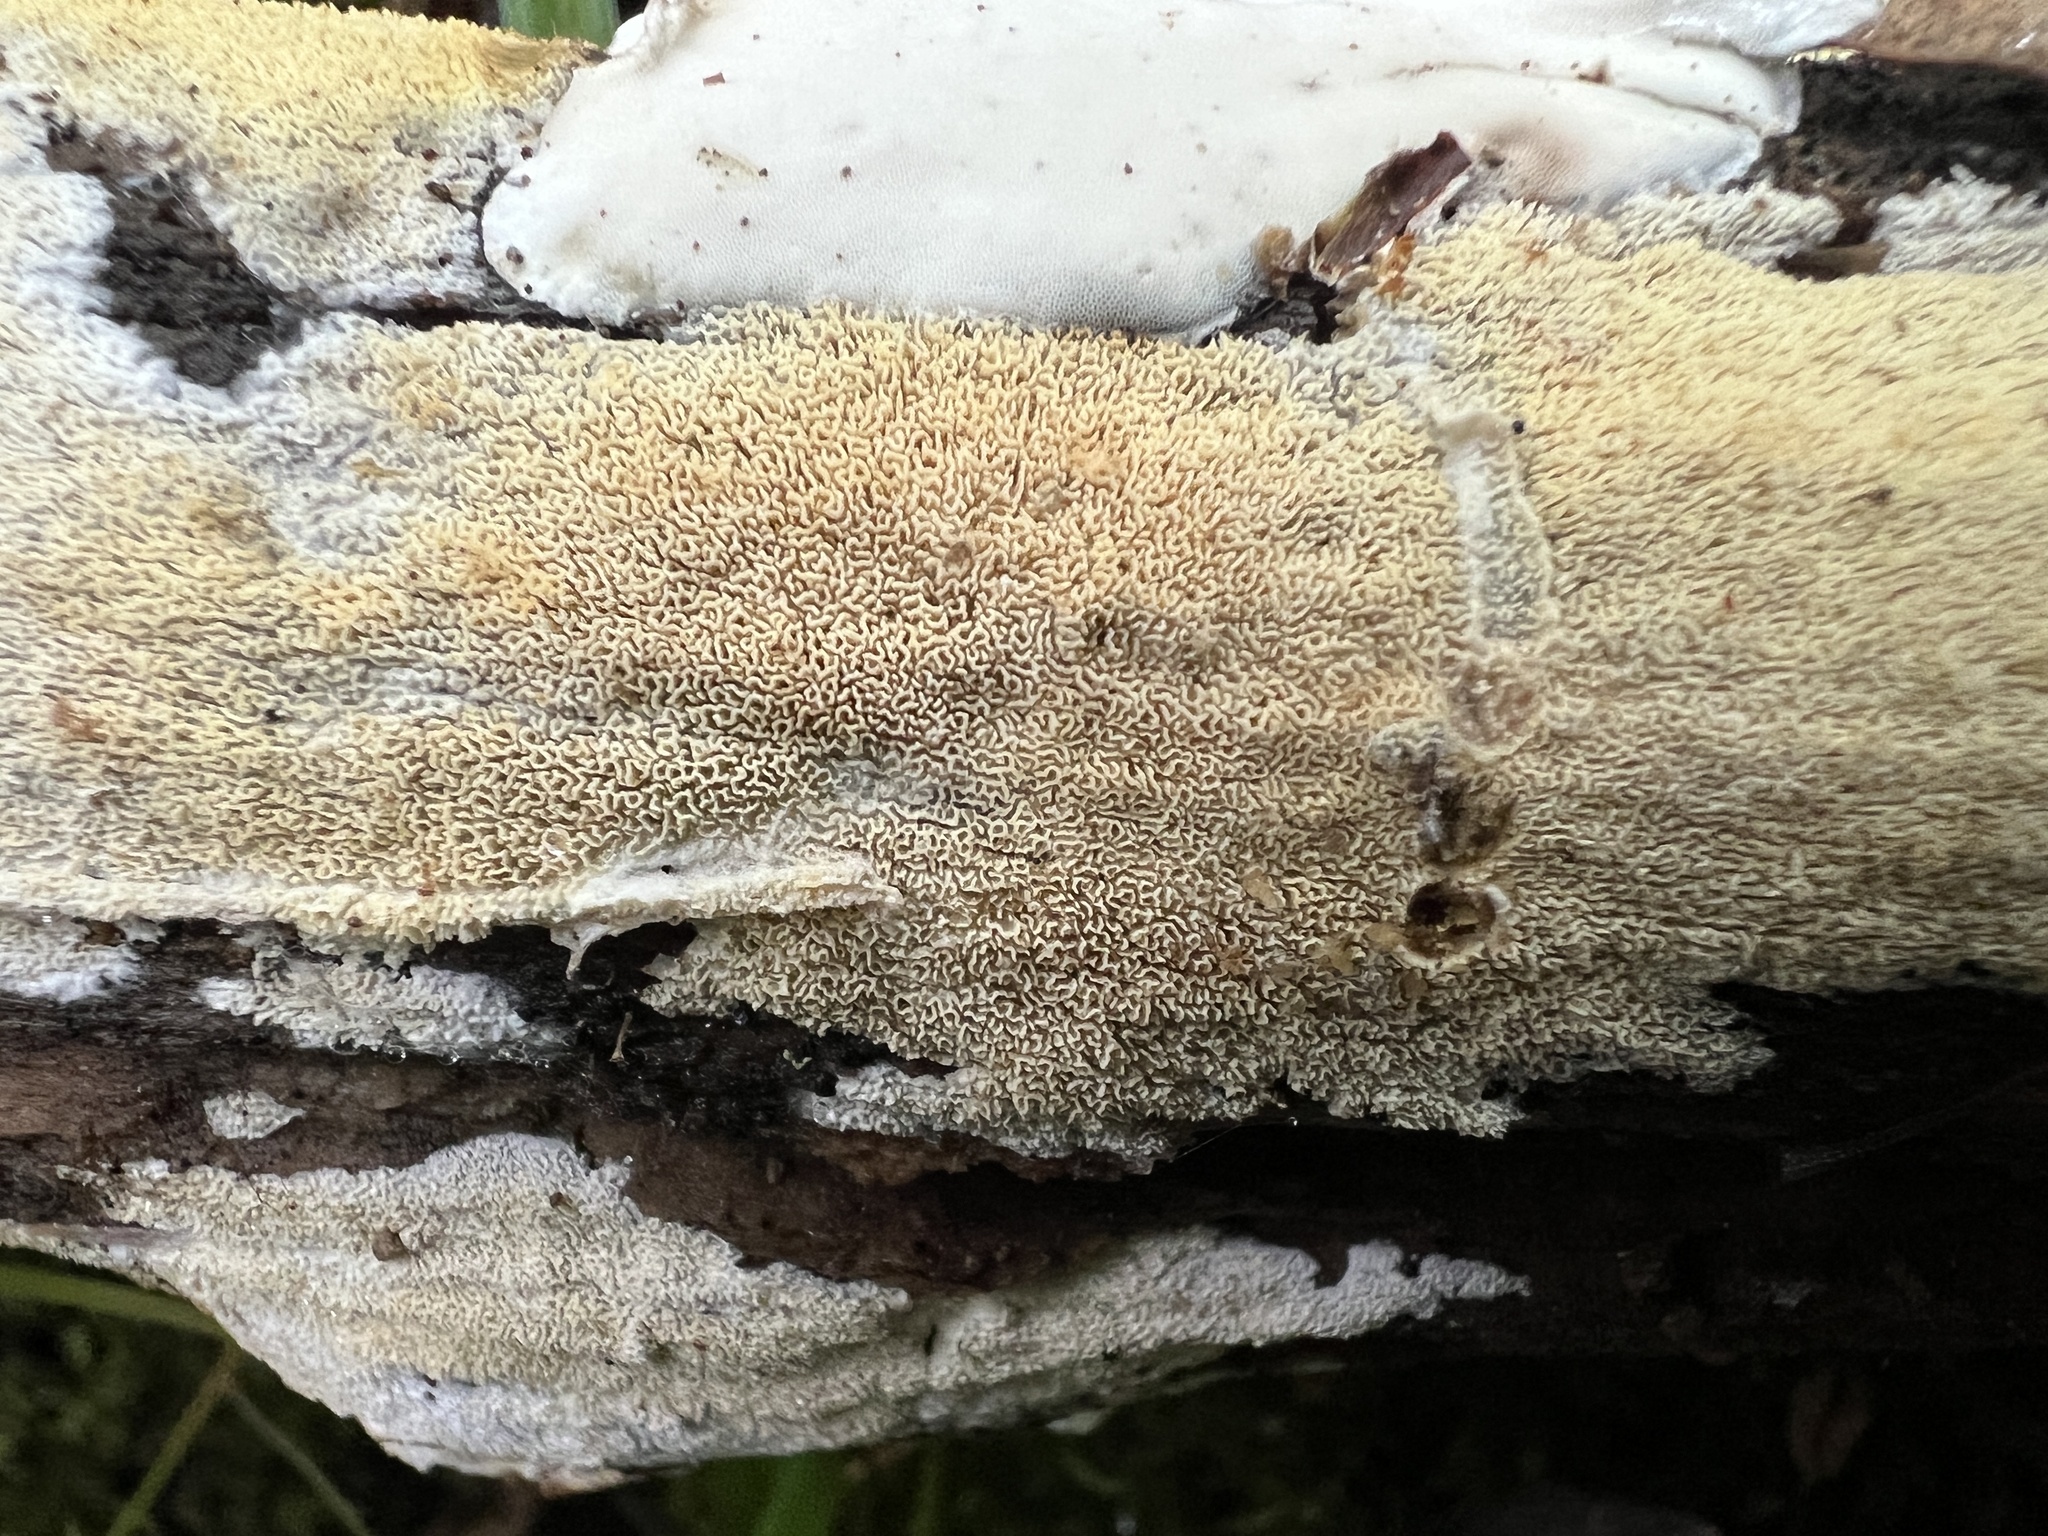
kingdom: Fungi
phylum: Basidiomycota
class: Agaricomycetes
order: Polyporales
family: Irpicaceae
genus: Irpex
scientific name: Irpex lacteus
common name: Milk-white toothed polypore
